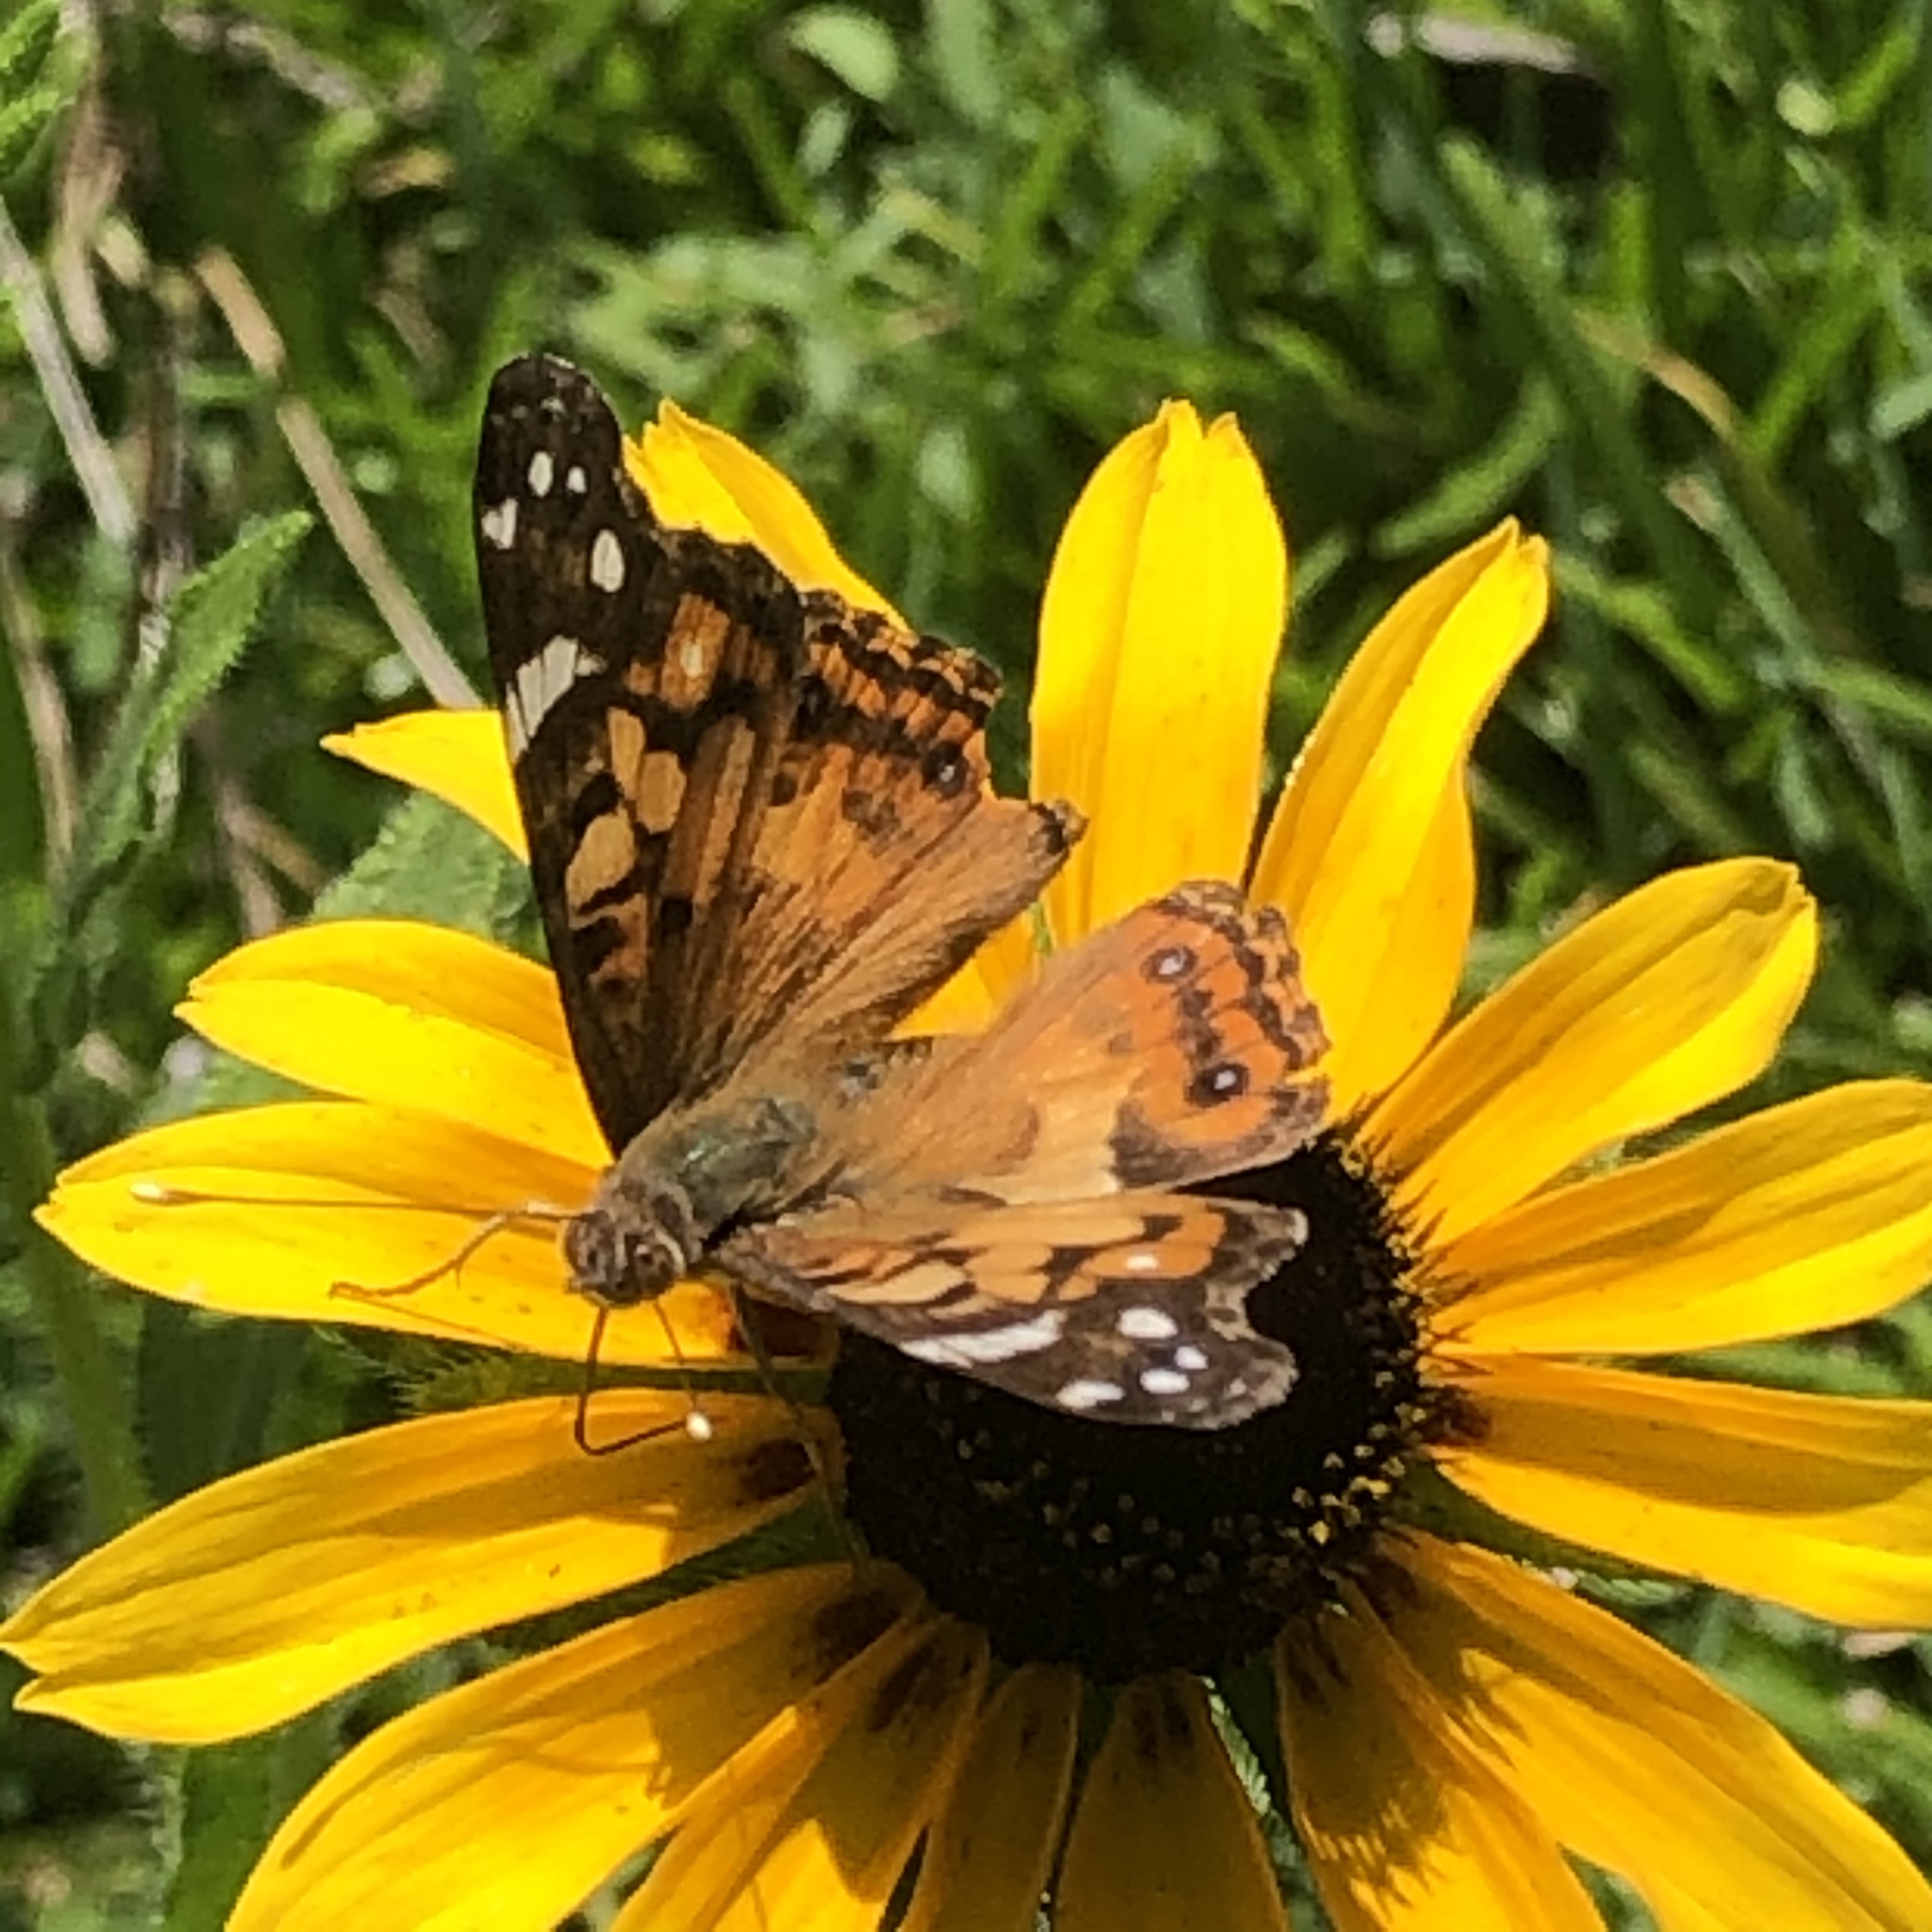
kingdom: Animalia
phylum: Arthropoda
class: Insecta
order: Lepidoptera
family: Nymphalidae
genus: Vanessa
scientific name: Vanessa virginiensis
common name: American lady
